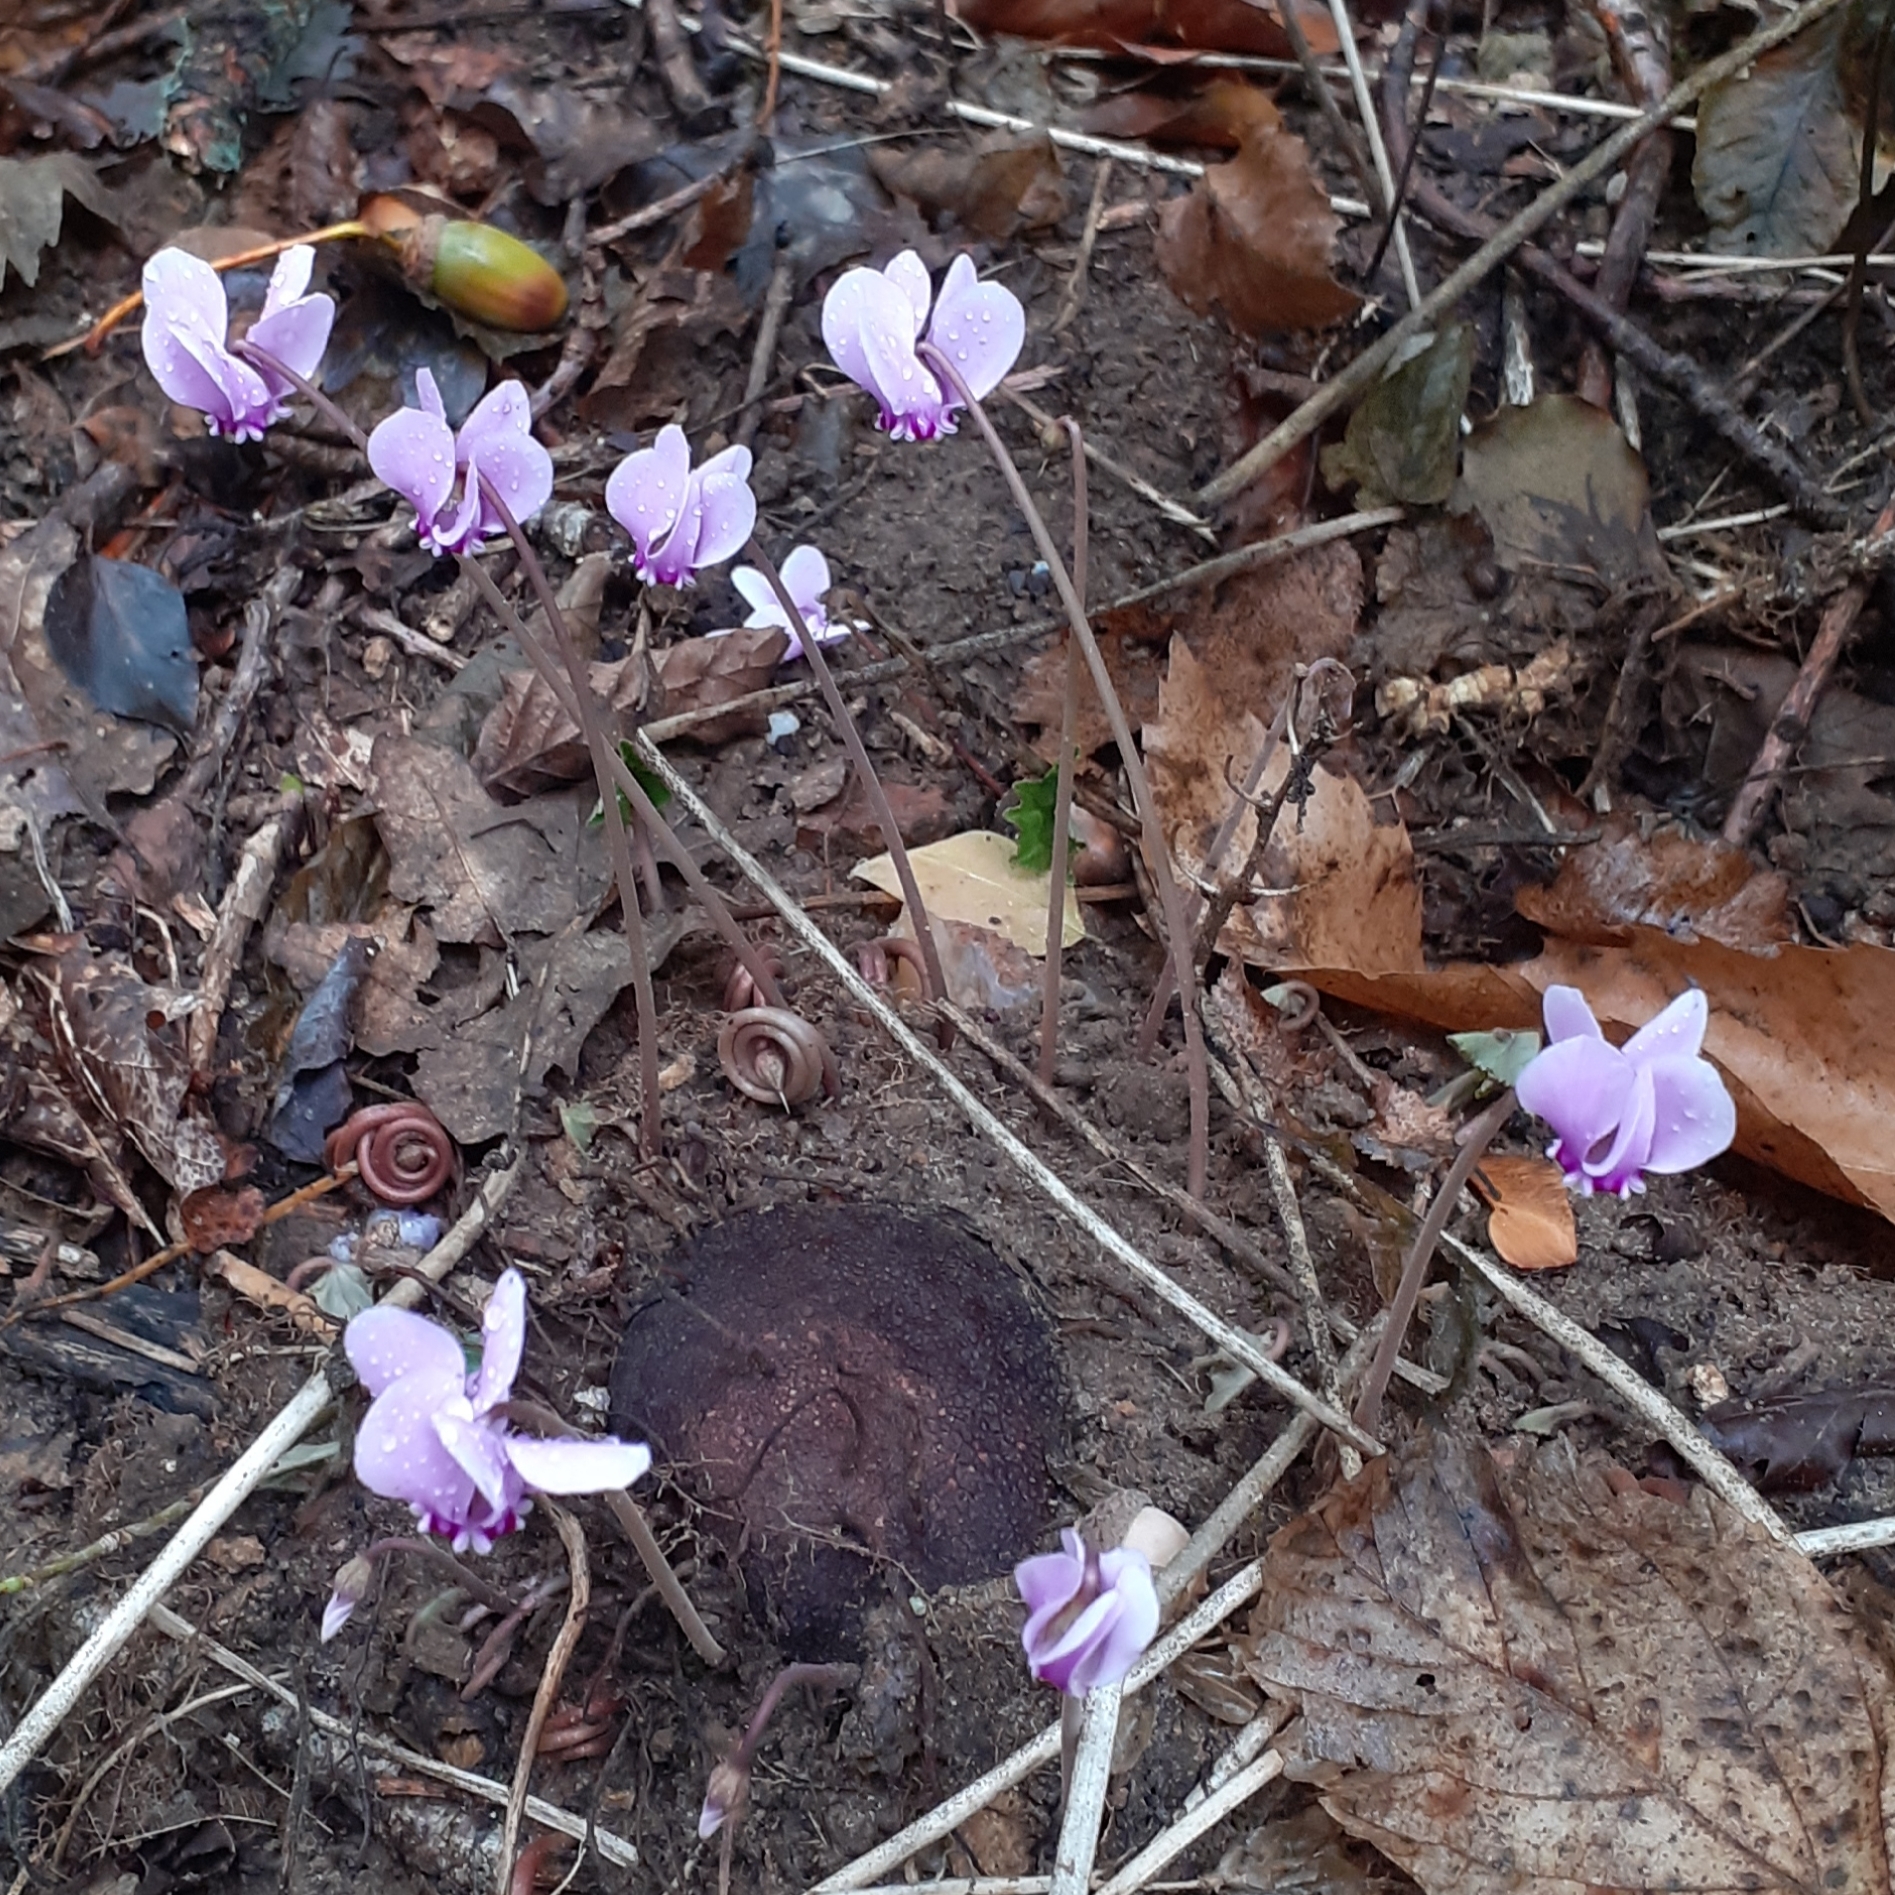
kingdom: Plantae
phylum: Tracheophyta
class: Magnoliopsida
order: Ericales
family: Primulaceae
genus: Cyclamen
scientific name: Cyclamen hederifolium
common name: Sowbread
